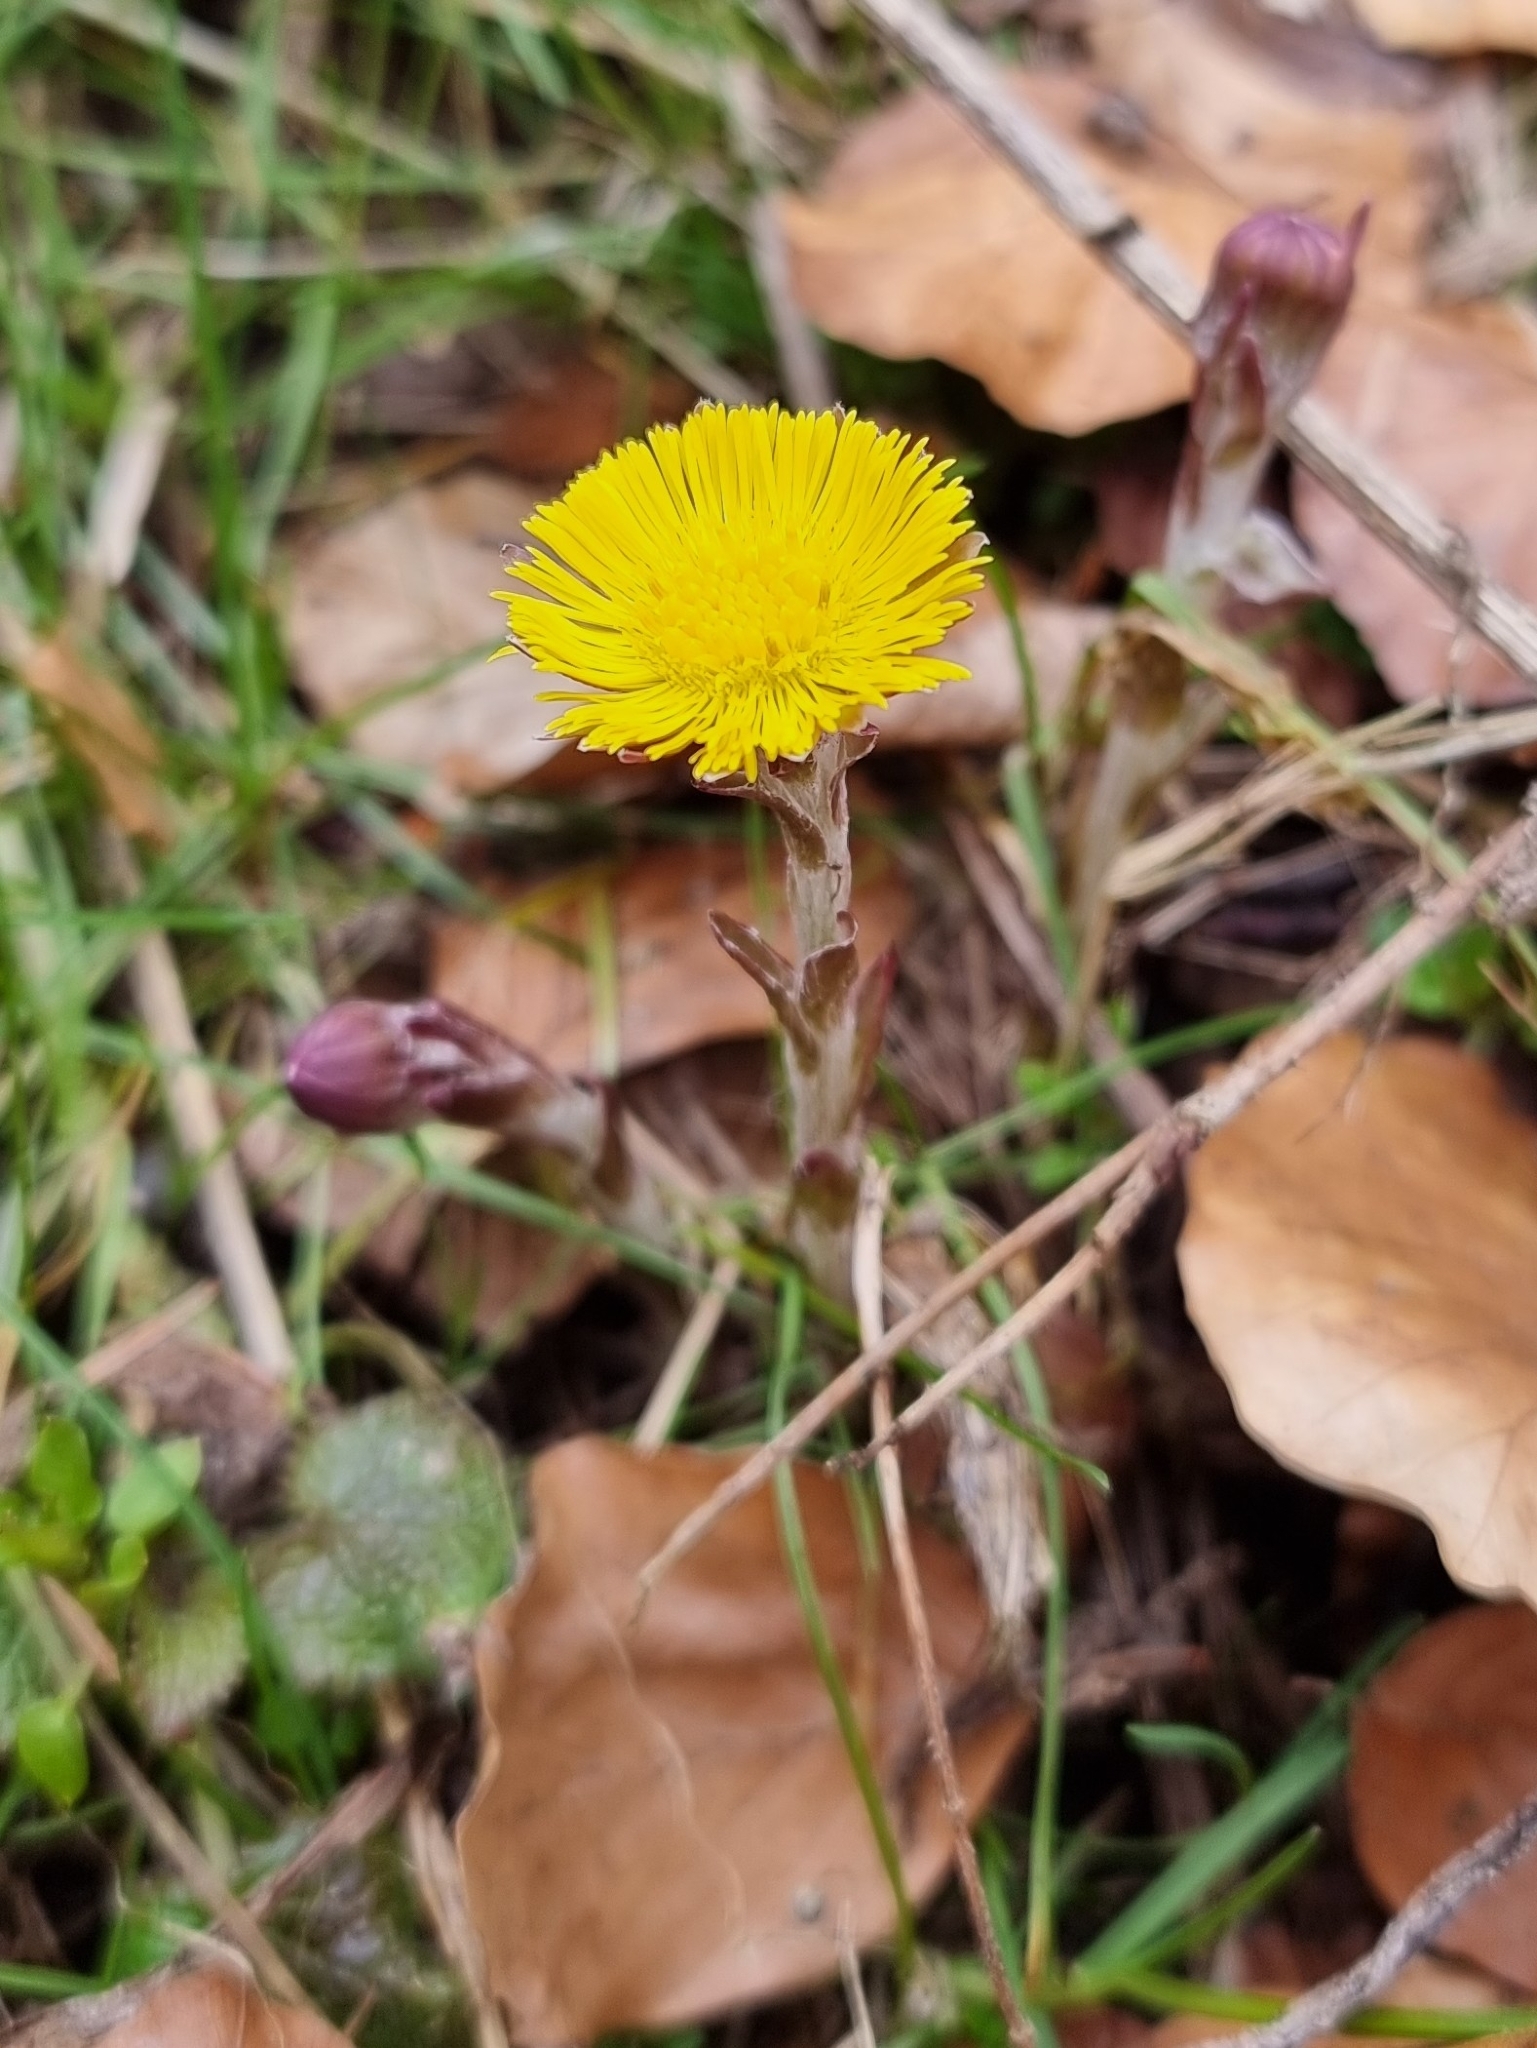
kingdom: Plantae
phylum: Tracheophyta
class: Magnoliopsida
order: Asterales
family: Asteraceae
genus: Tussilago
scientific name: Tussilago farfara
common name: Coltsfoot
